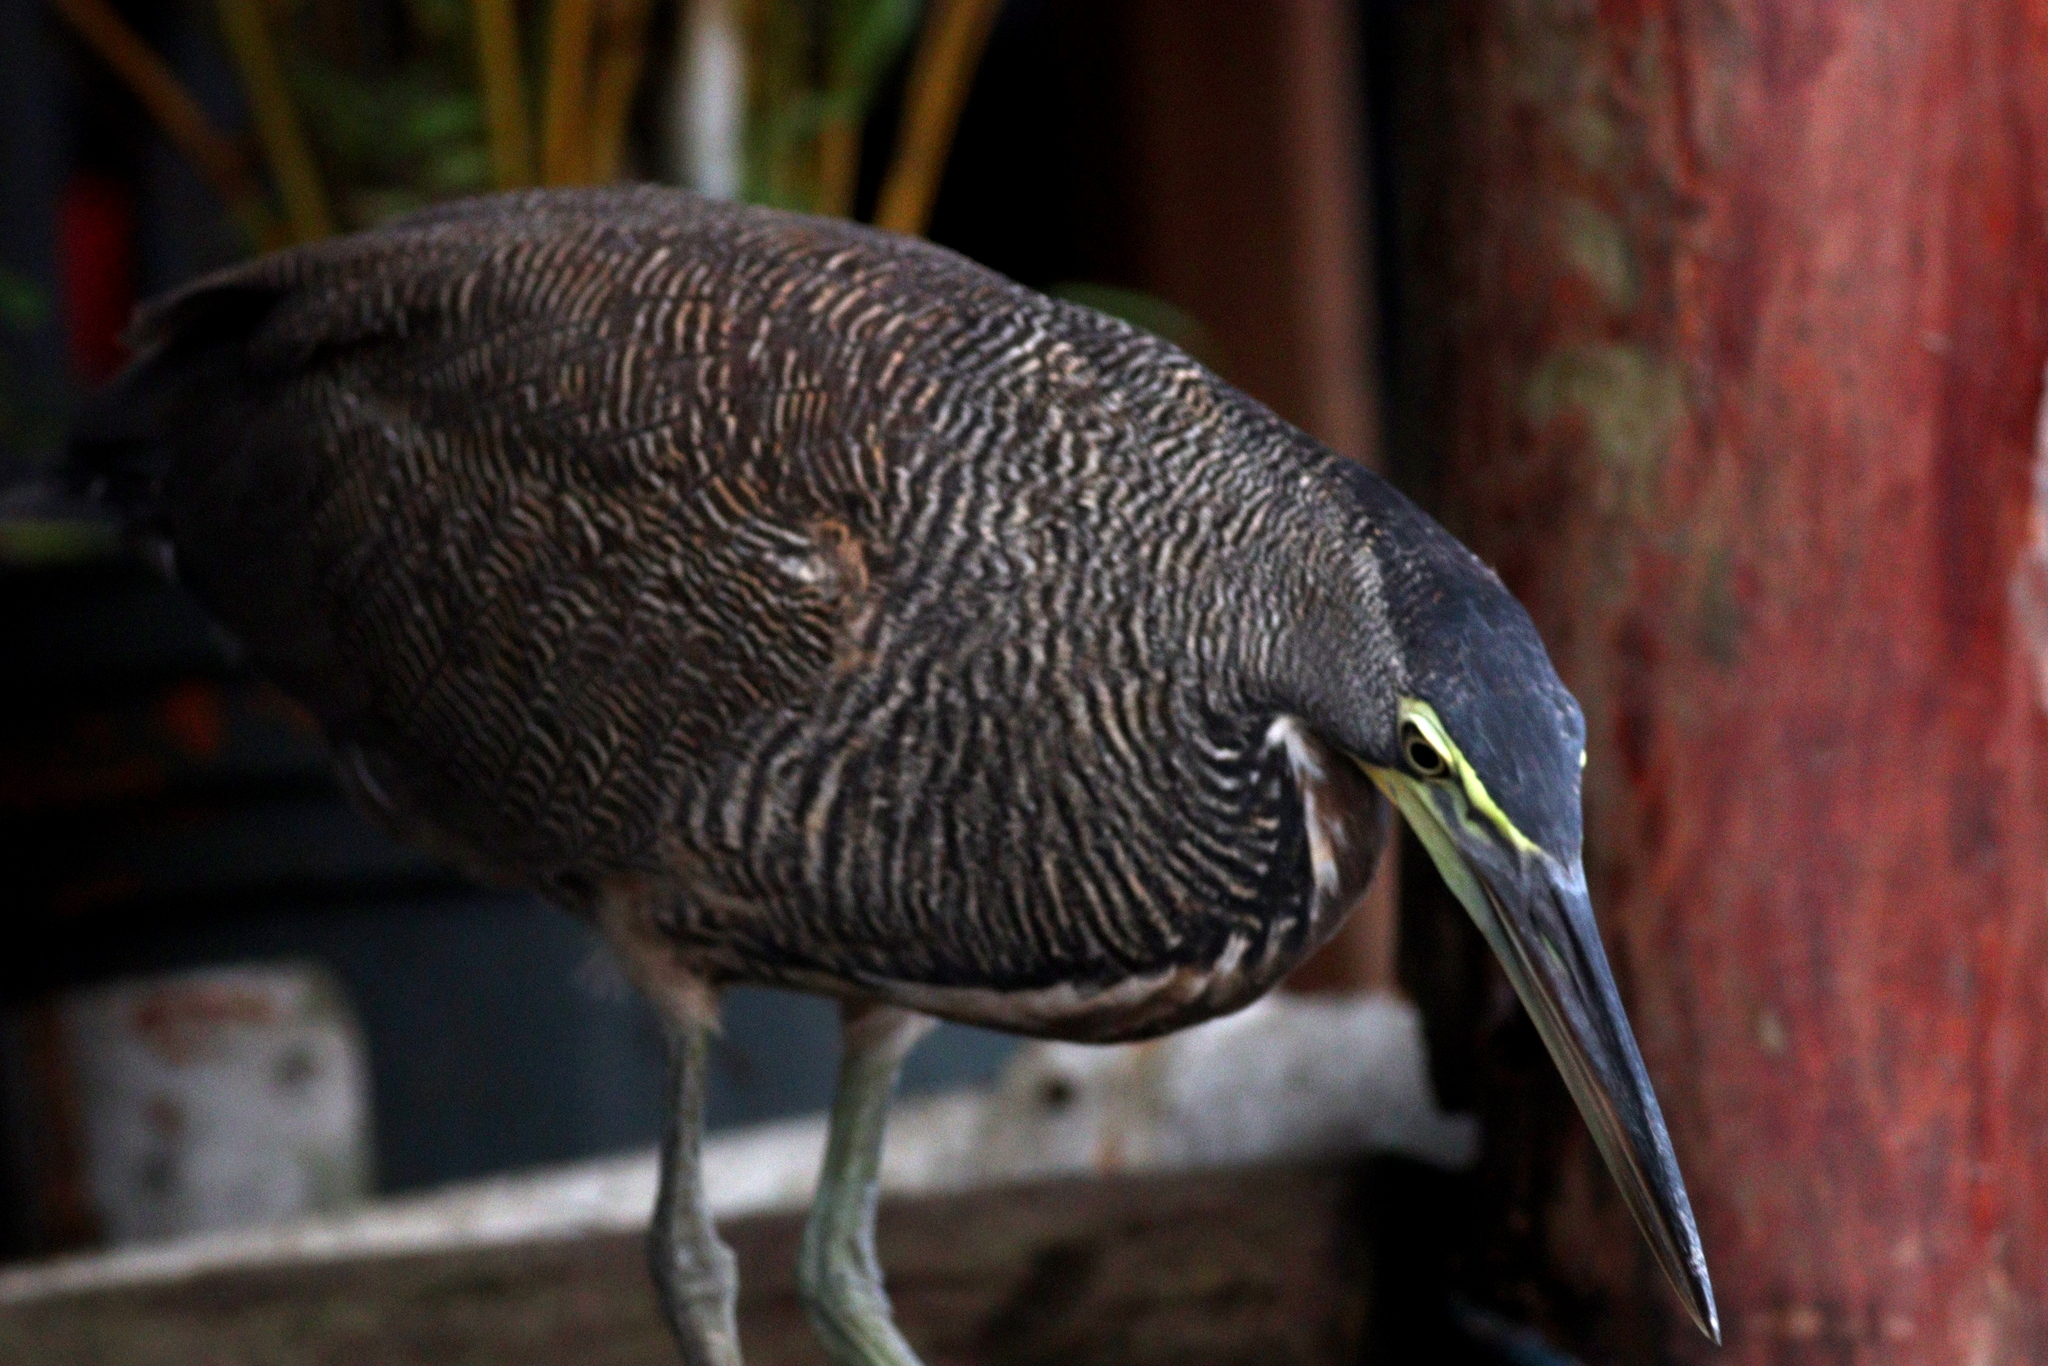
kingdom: Animalia
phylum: Chordata
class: Aves
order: Pelecaniformes
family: Ardeidae
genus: Tigrisoma
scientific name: Tigrisoma mexicanum
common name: Bare-throated tiger-heron
